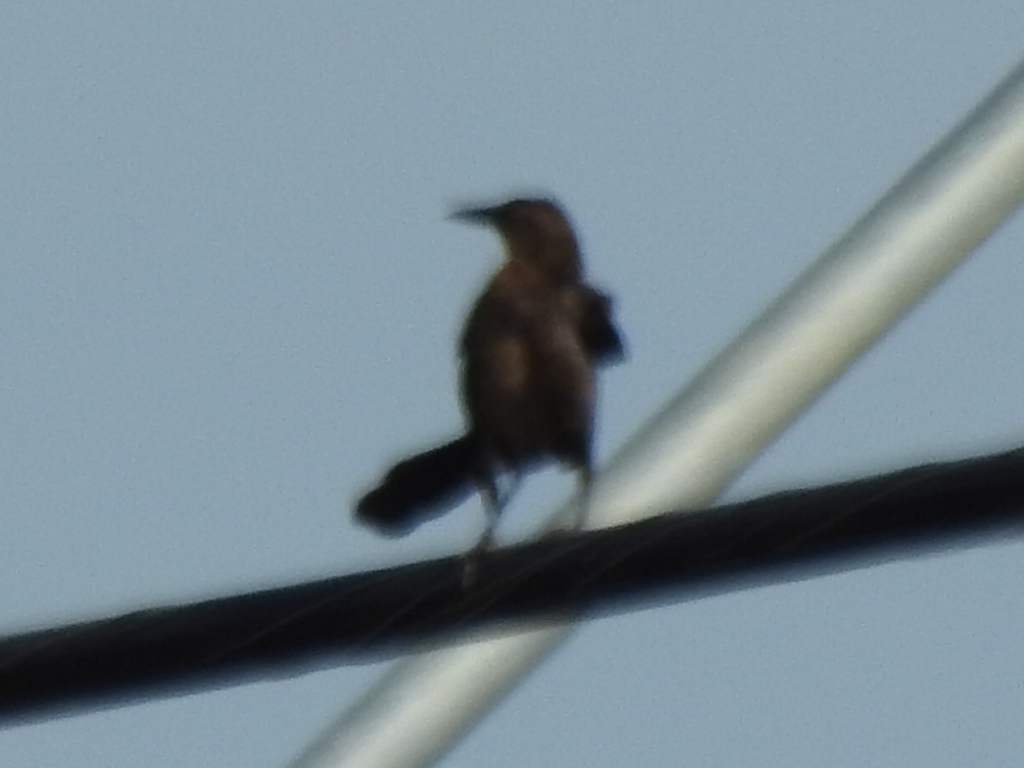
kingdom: Animalia
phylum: Chordata
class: Aves
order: Passeriformes
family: Icteridae
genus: Quiscalus
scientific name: Quiscalus mexicanus
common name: Great-tailed grackle
